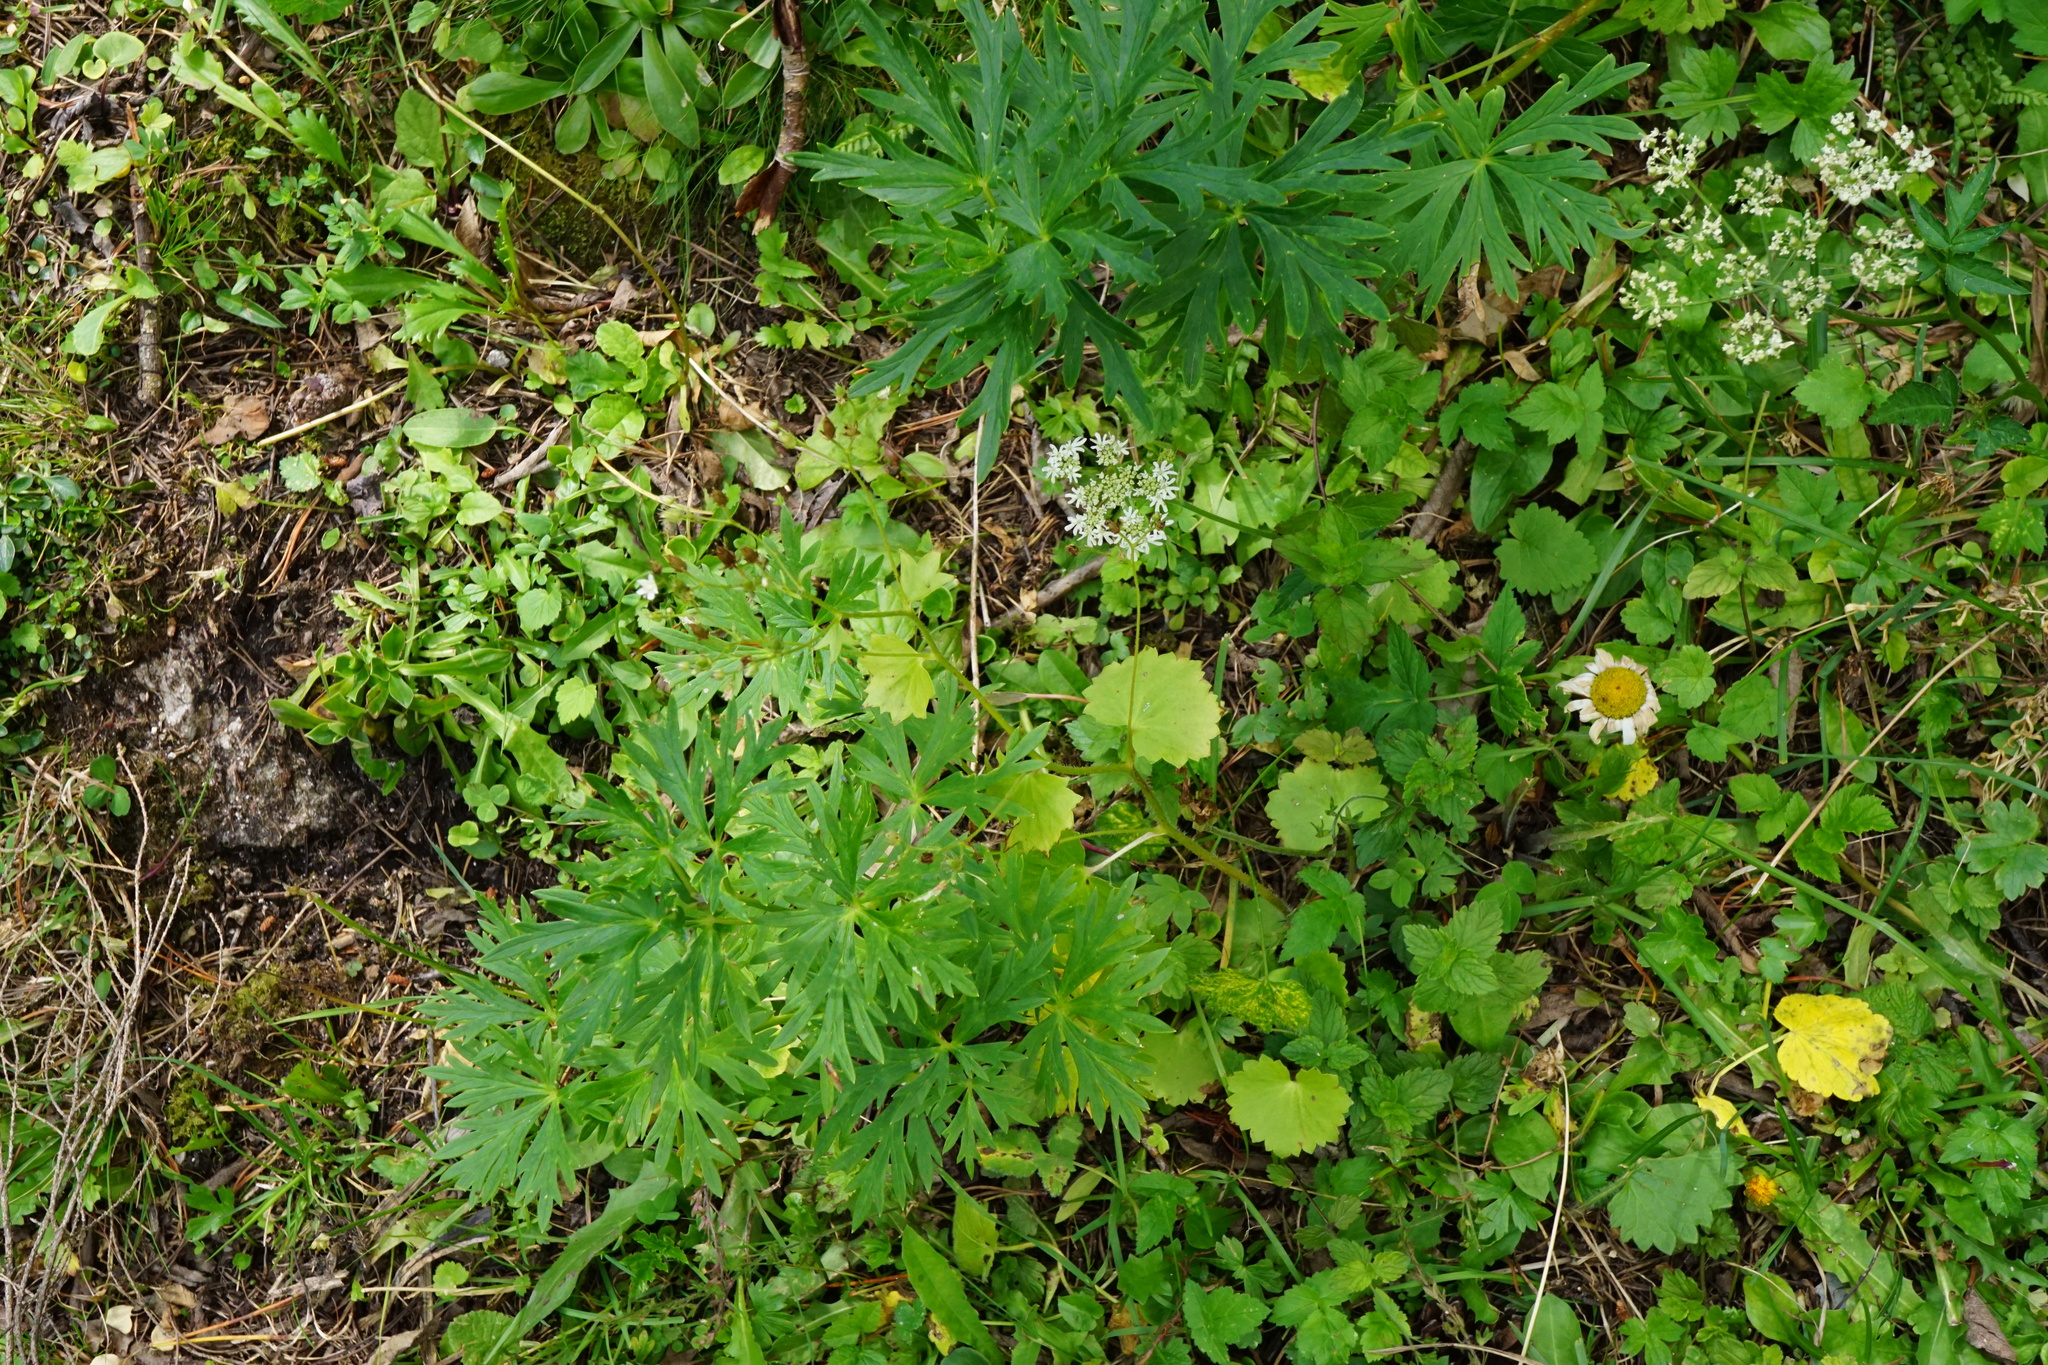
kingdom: Plantae
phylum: Tracheophyta
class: Magnoliopsida
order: Saxifragales
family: Saxifragaceae
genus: Saxifraga
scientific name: Saxifraga rotundifolia
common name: Round-leaved saxifrage
